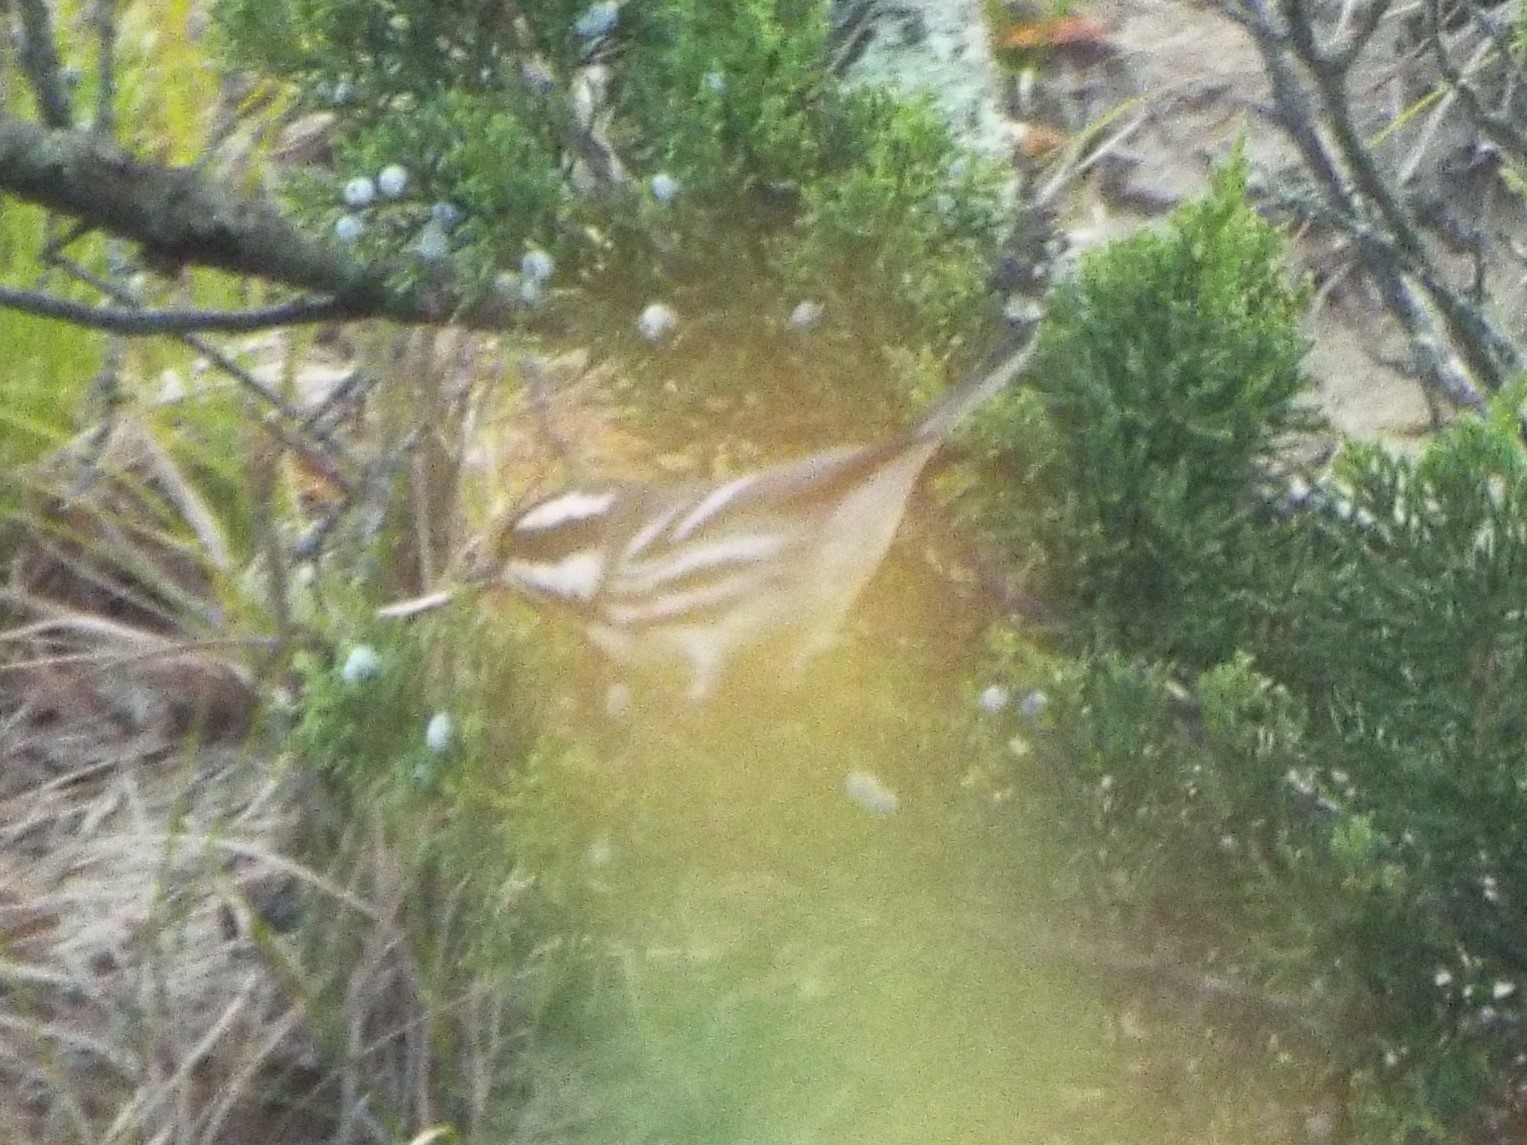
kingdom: Animalia
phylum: Chordata
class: Aves
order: Passeriformes
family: Parulidae
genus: Setophaga
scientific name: Setophaga nigrescens
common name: Black-throated gray warbler
